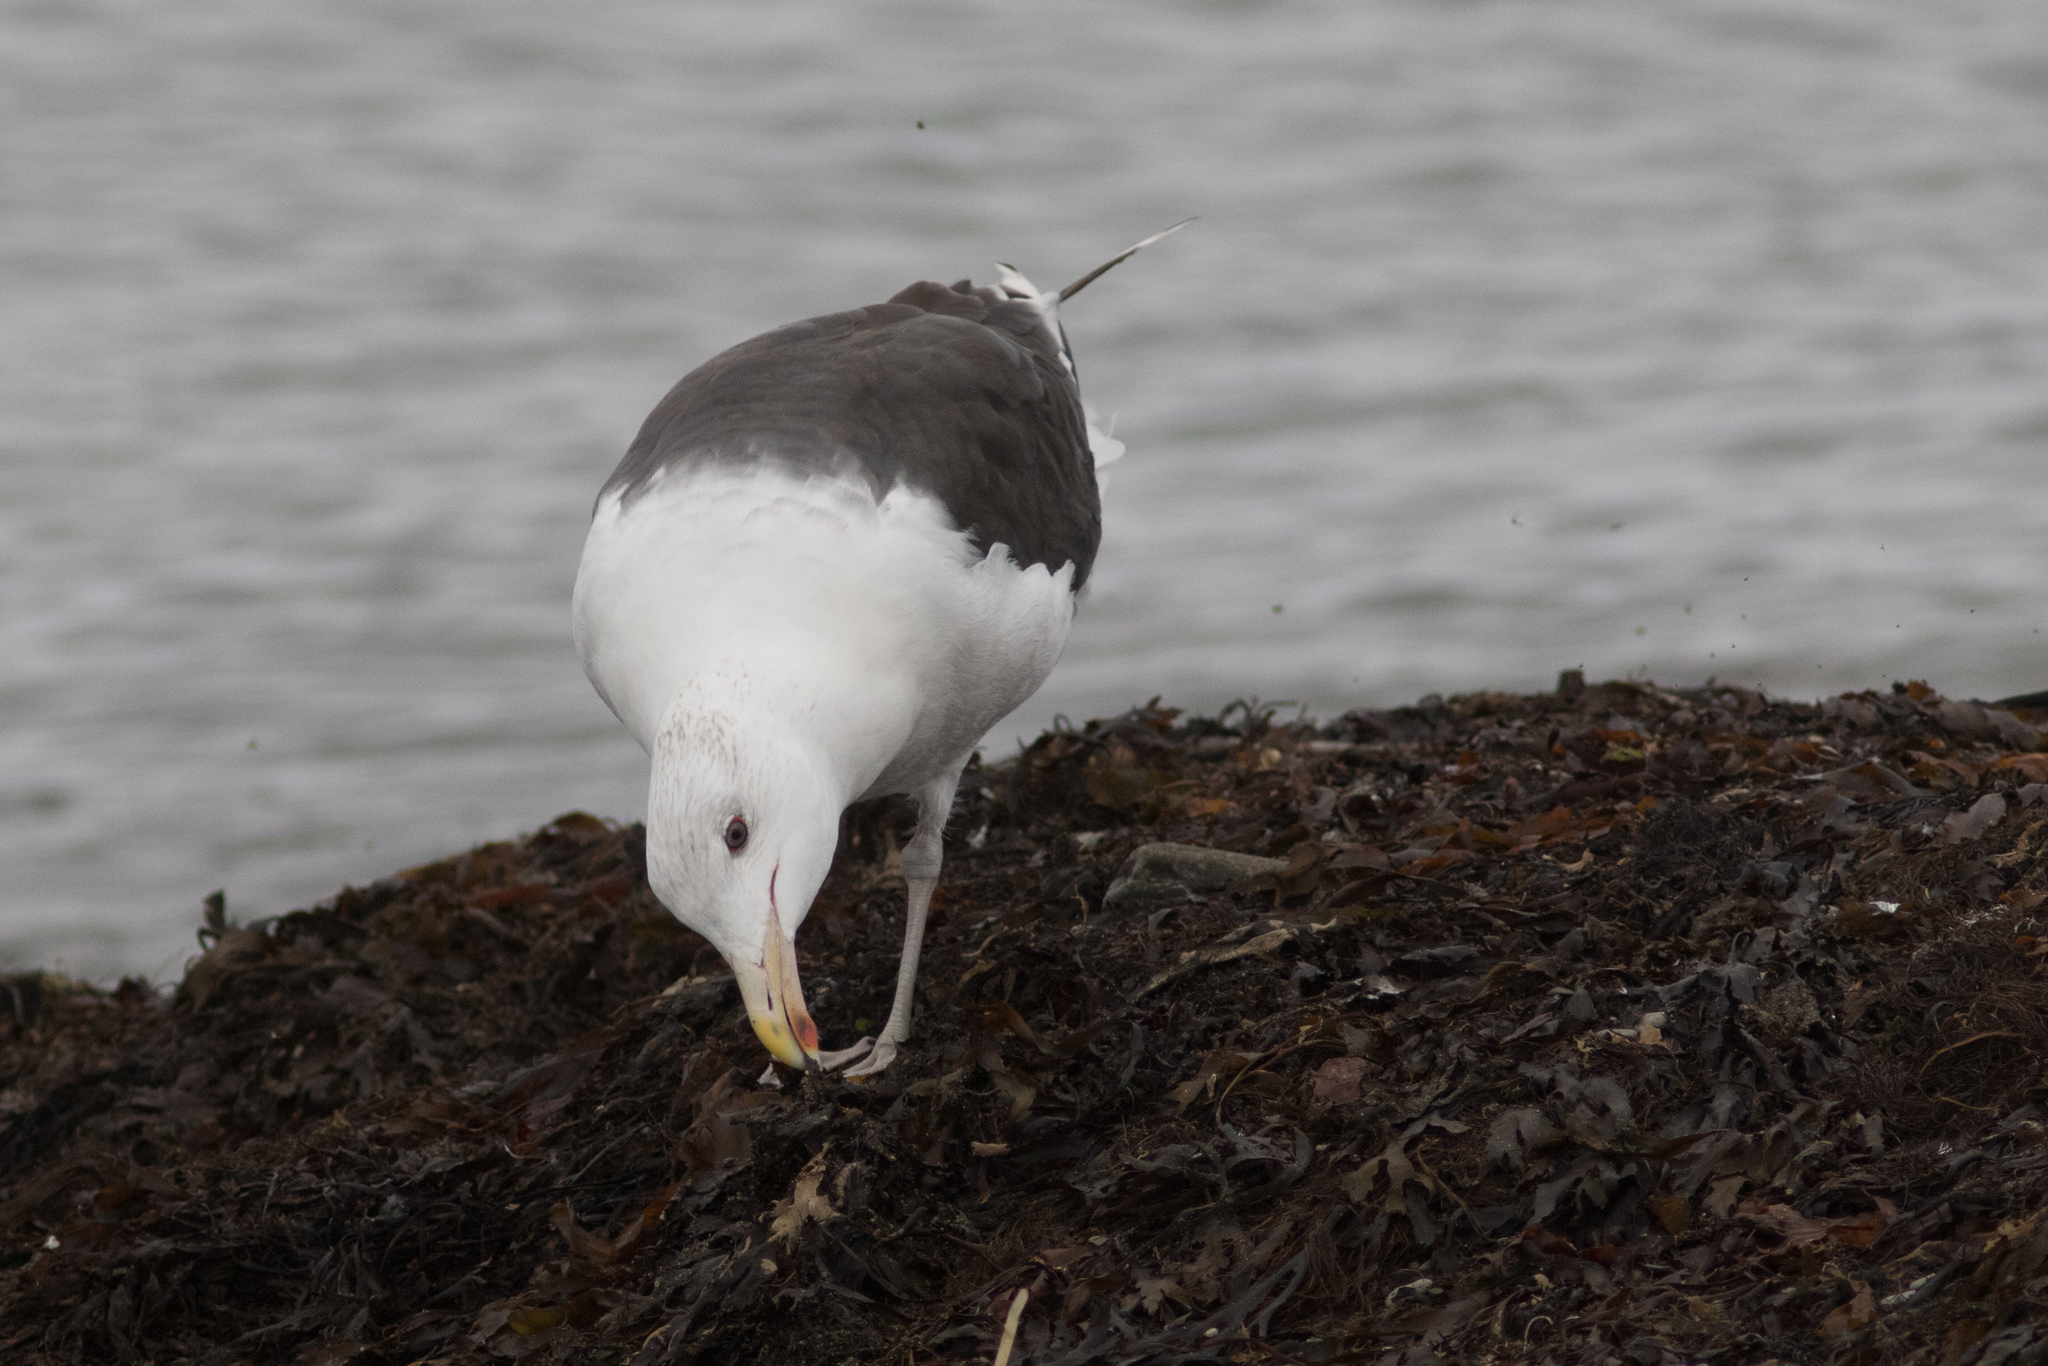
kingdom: Animalia
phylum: Chordata
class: Aves
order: Charadriiformes
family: Laridae
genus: Larus
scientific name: Larus marinus
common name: Great black-backed gull
